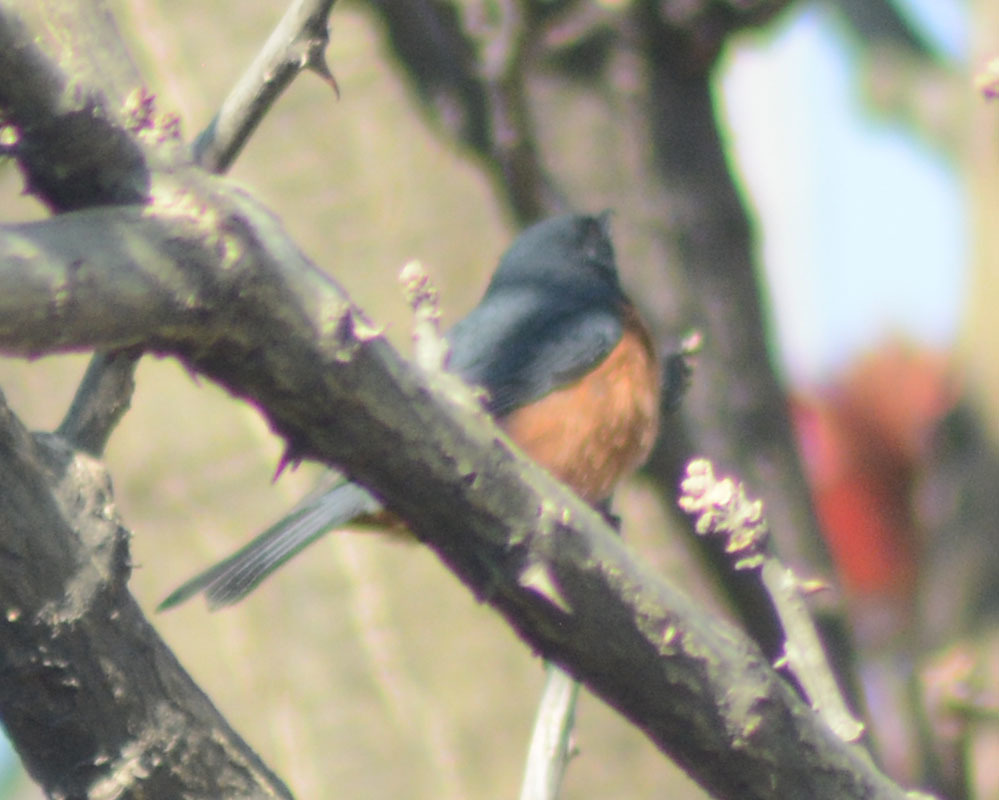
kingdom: Animalia
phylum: Chordata
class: Aves
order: Passeriformes
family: Thraupidae
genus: Diglossa
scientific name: Diglossa baritula
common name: Cinnamon-bellied flowerpiercer
